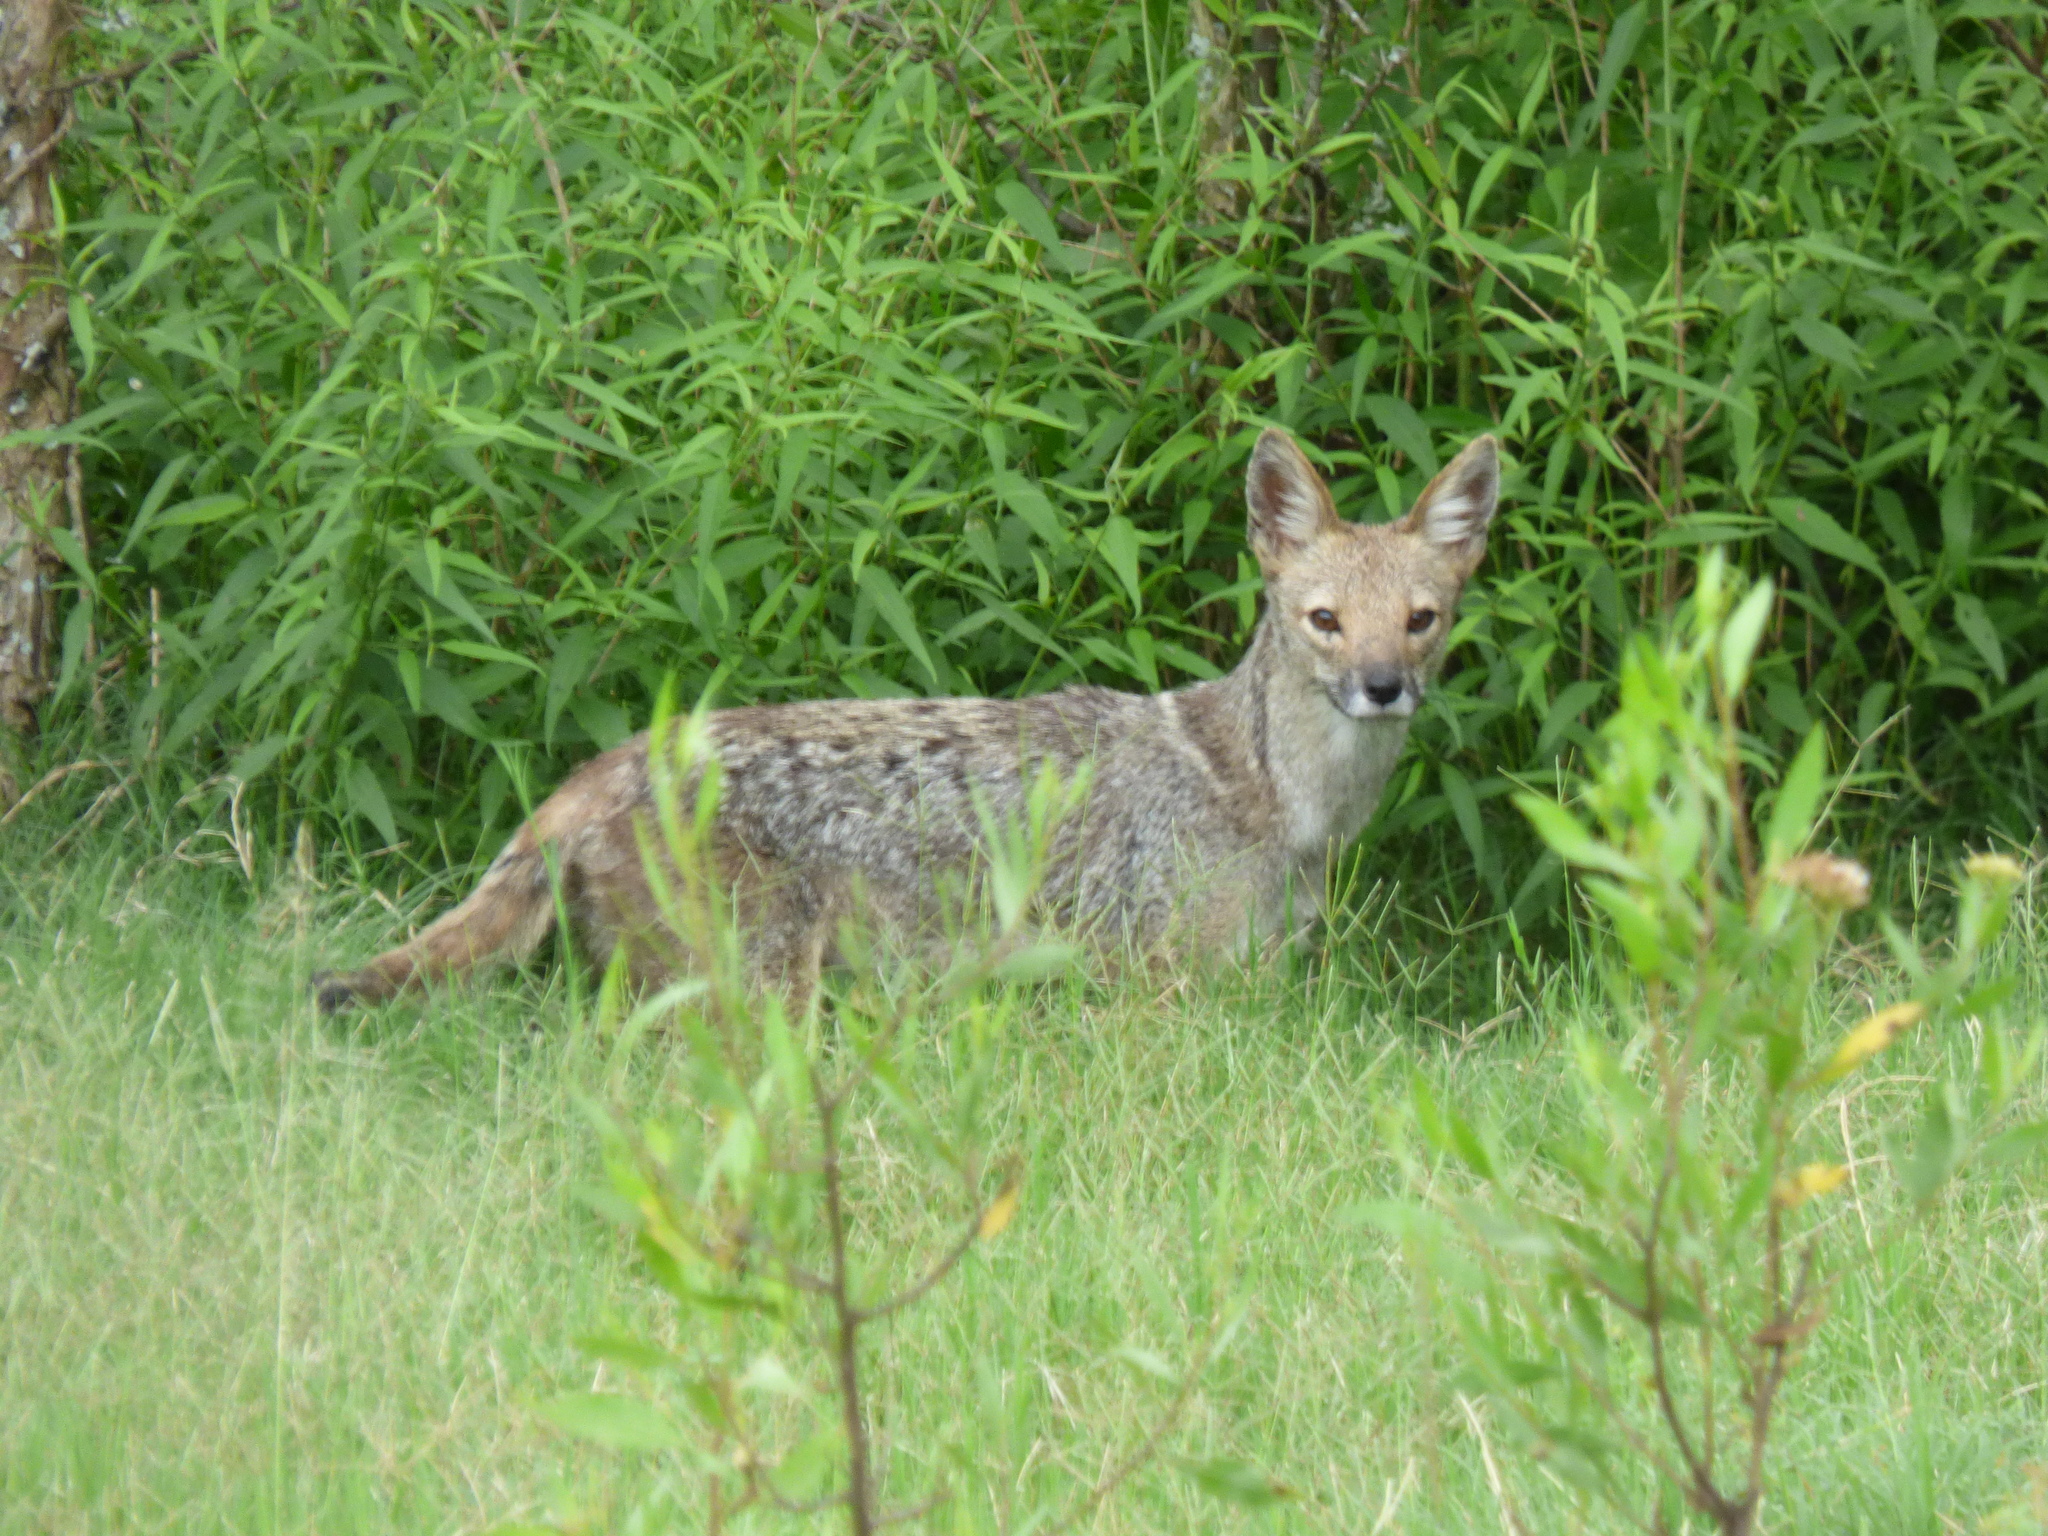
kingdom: Animalia
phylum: Chordata
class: Mammalia
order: Carnivora
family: Canidae
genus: Lycalopex
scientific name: Lycalopex gymnocercus
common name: Pampas fox
